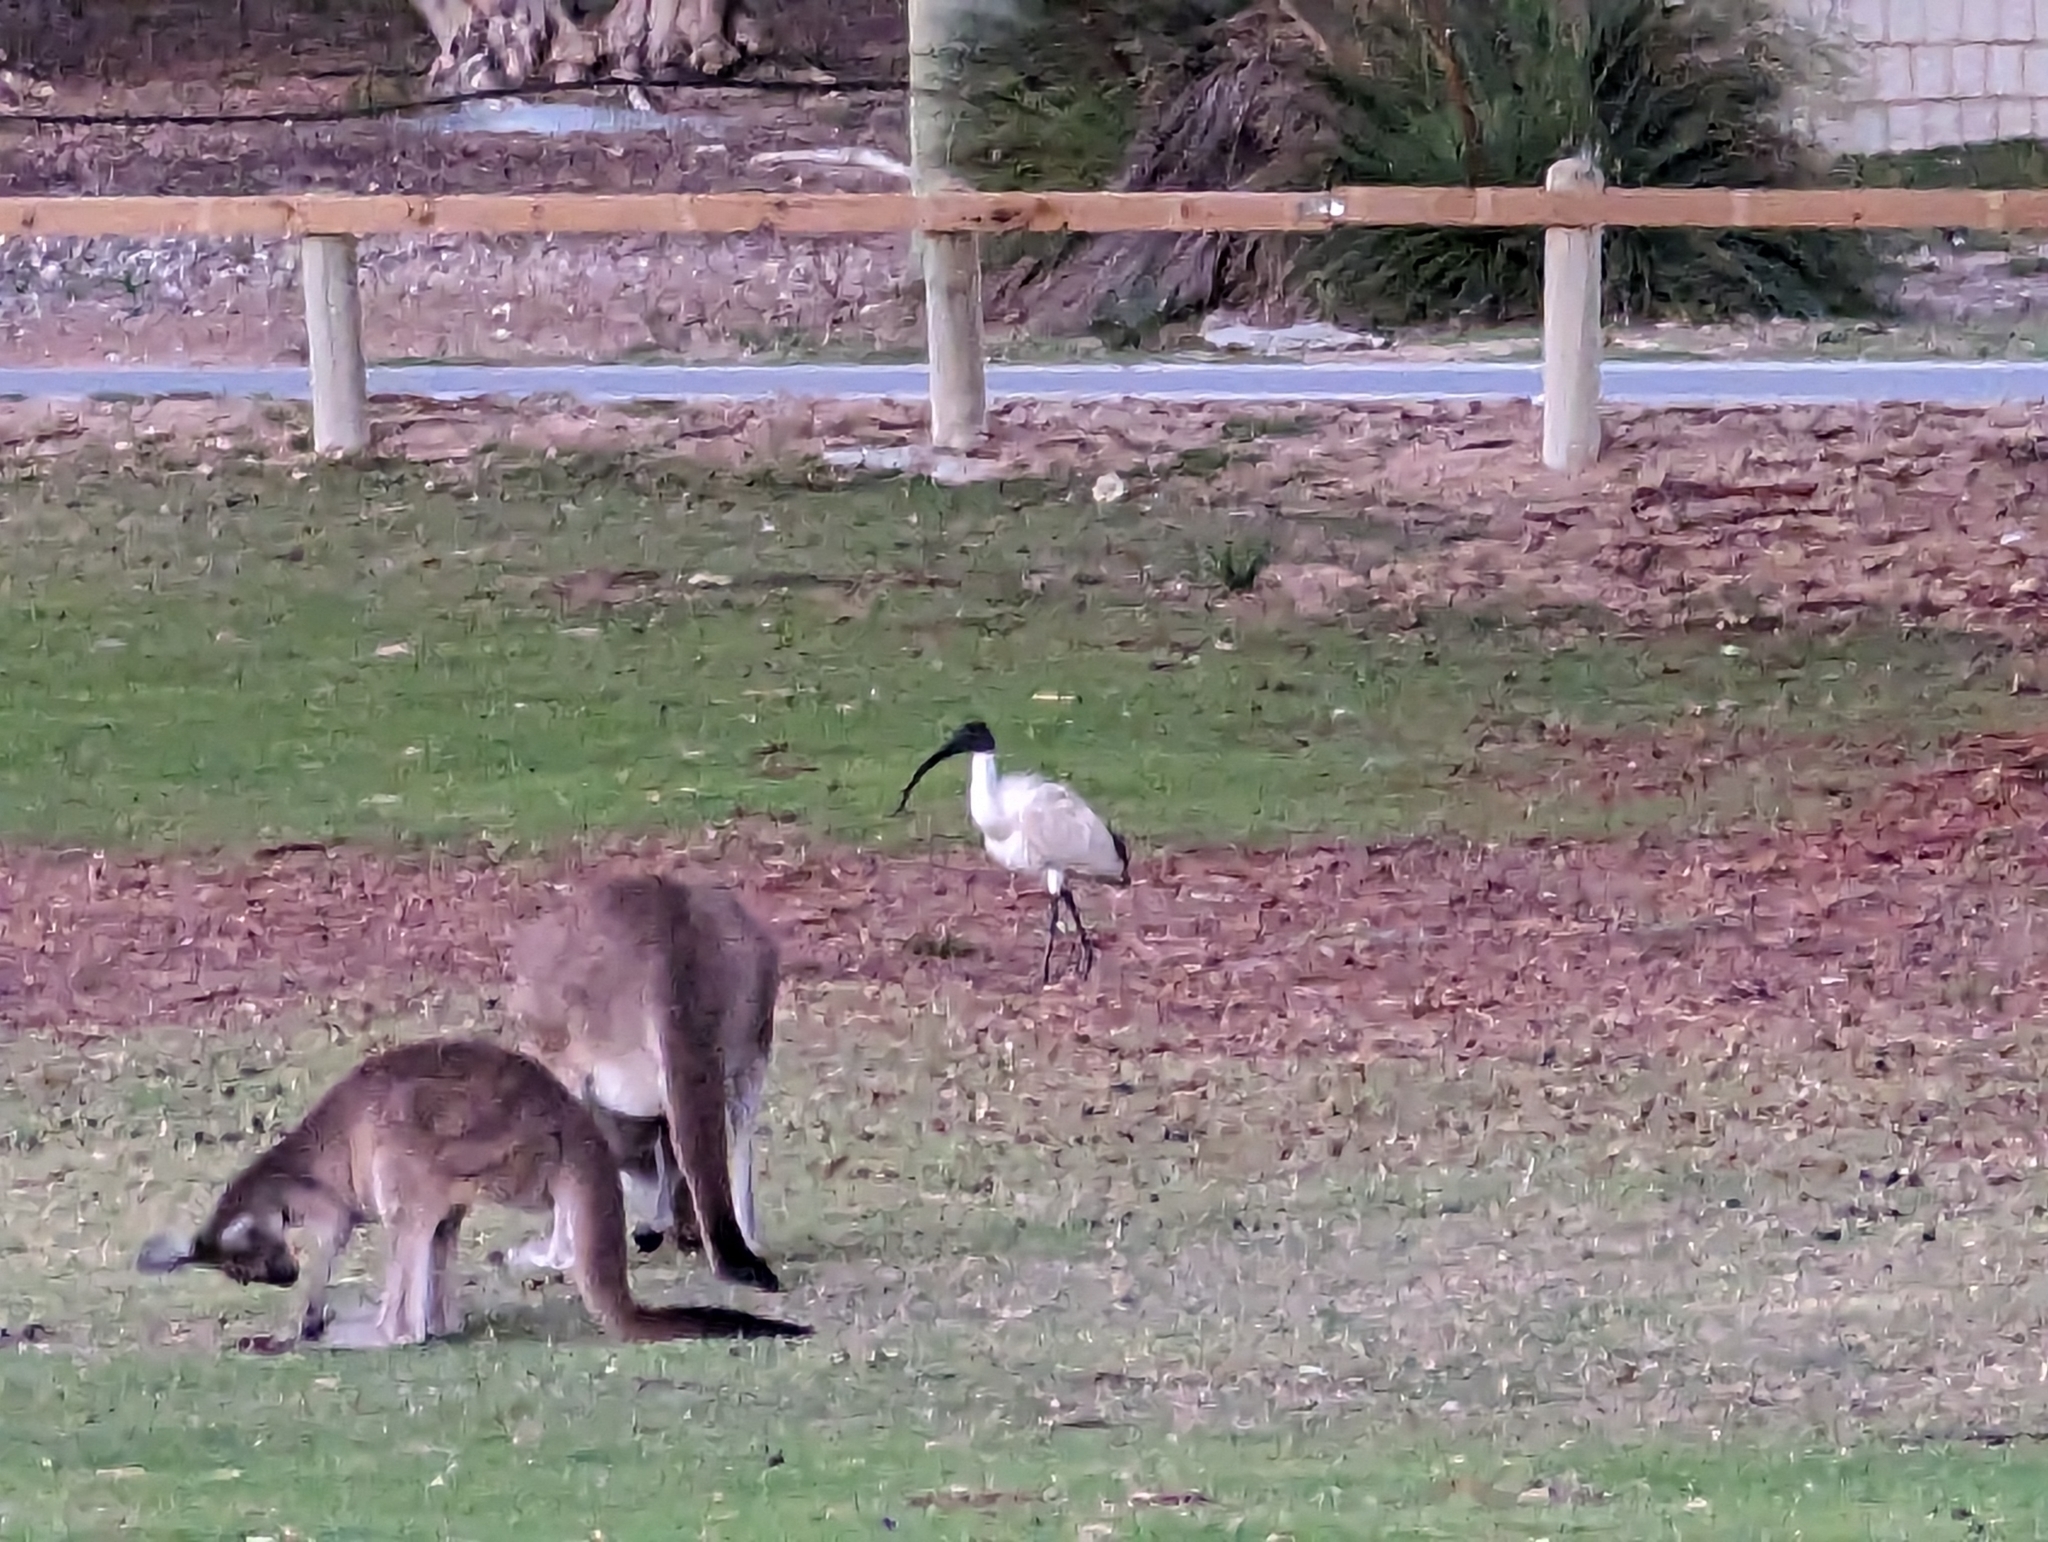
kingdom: Animalia
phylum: Chordata
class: Aves
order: Pelecaniformes
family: Threskiornithidae
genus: Threskiornis
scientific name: Threskiornis molucca
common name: Australian white ibis
